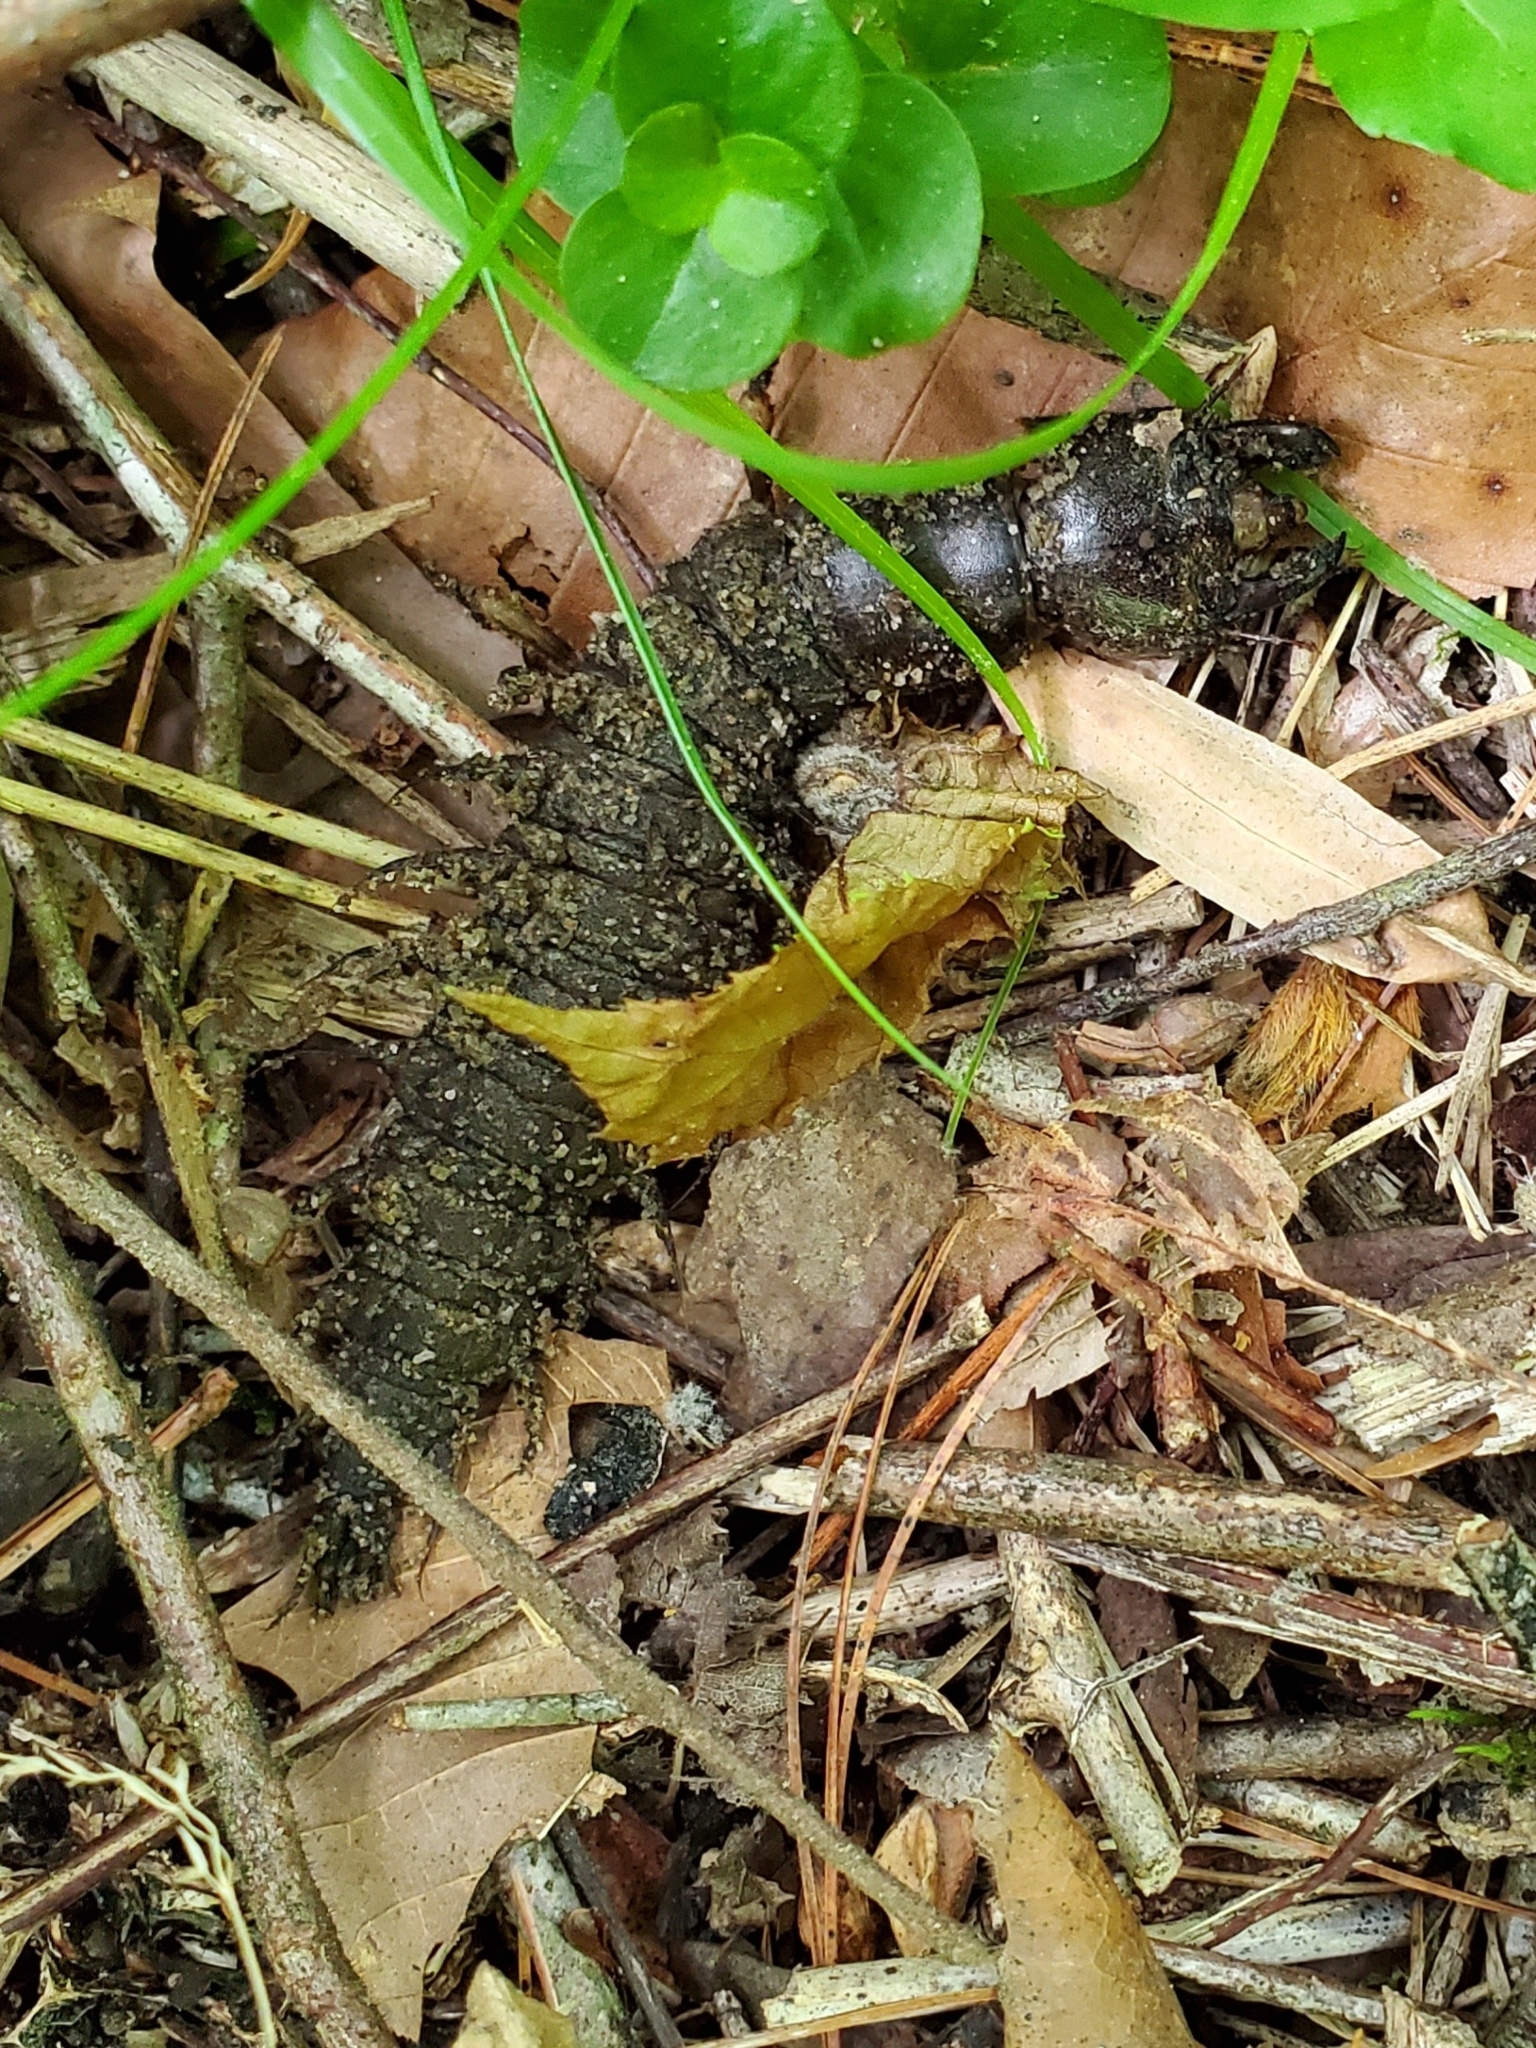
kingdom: Animalia
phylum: Arthropoda
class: Insecta
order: Megaloptera
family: Corydalidae
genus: Corydalus
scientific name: Corydalus cornutus
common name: Dobsonfly
